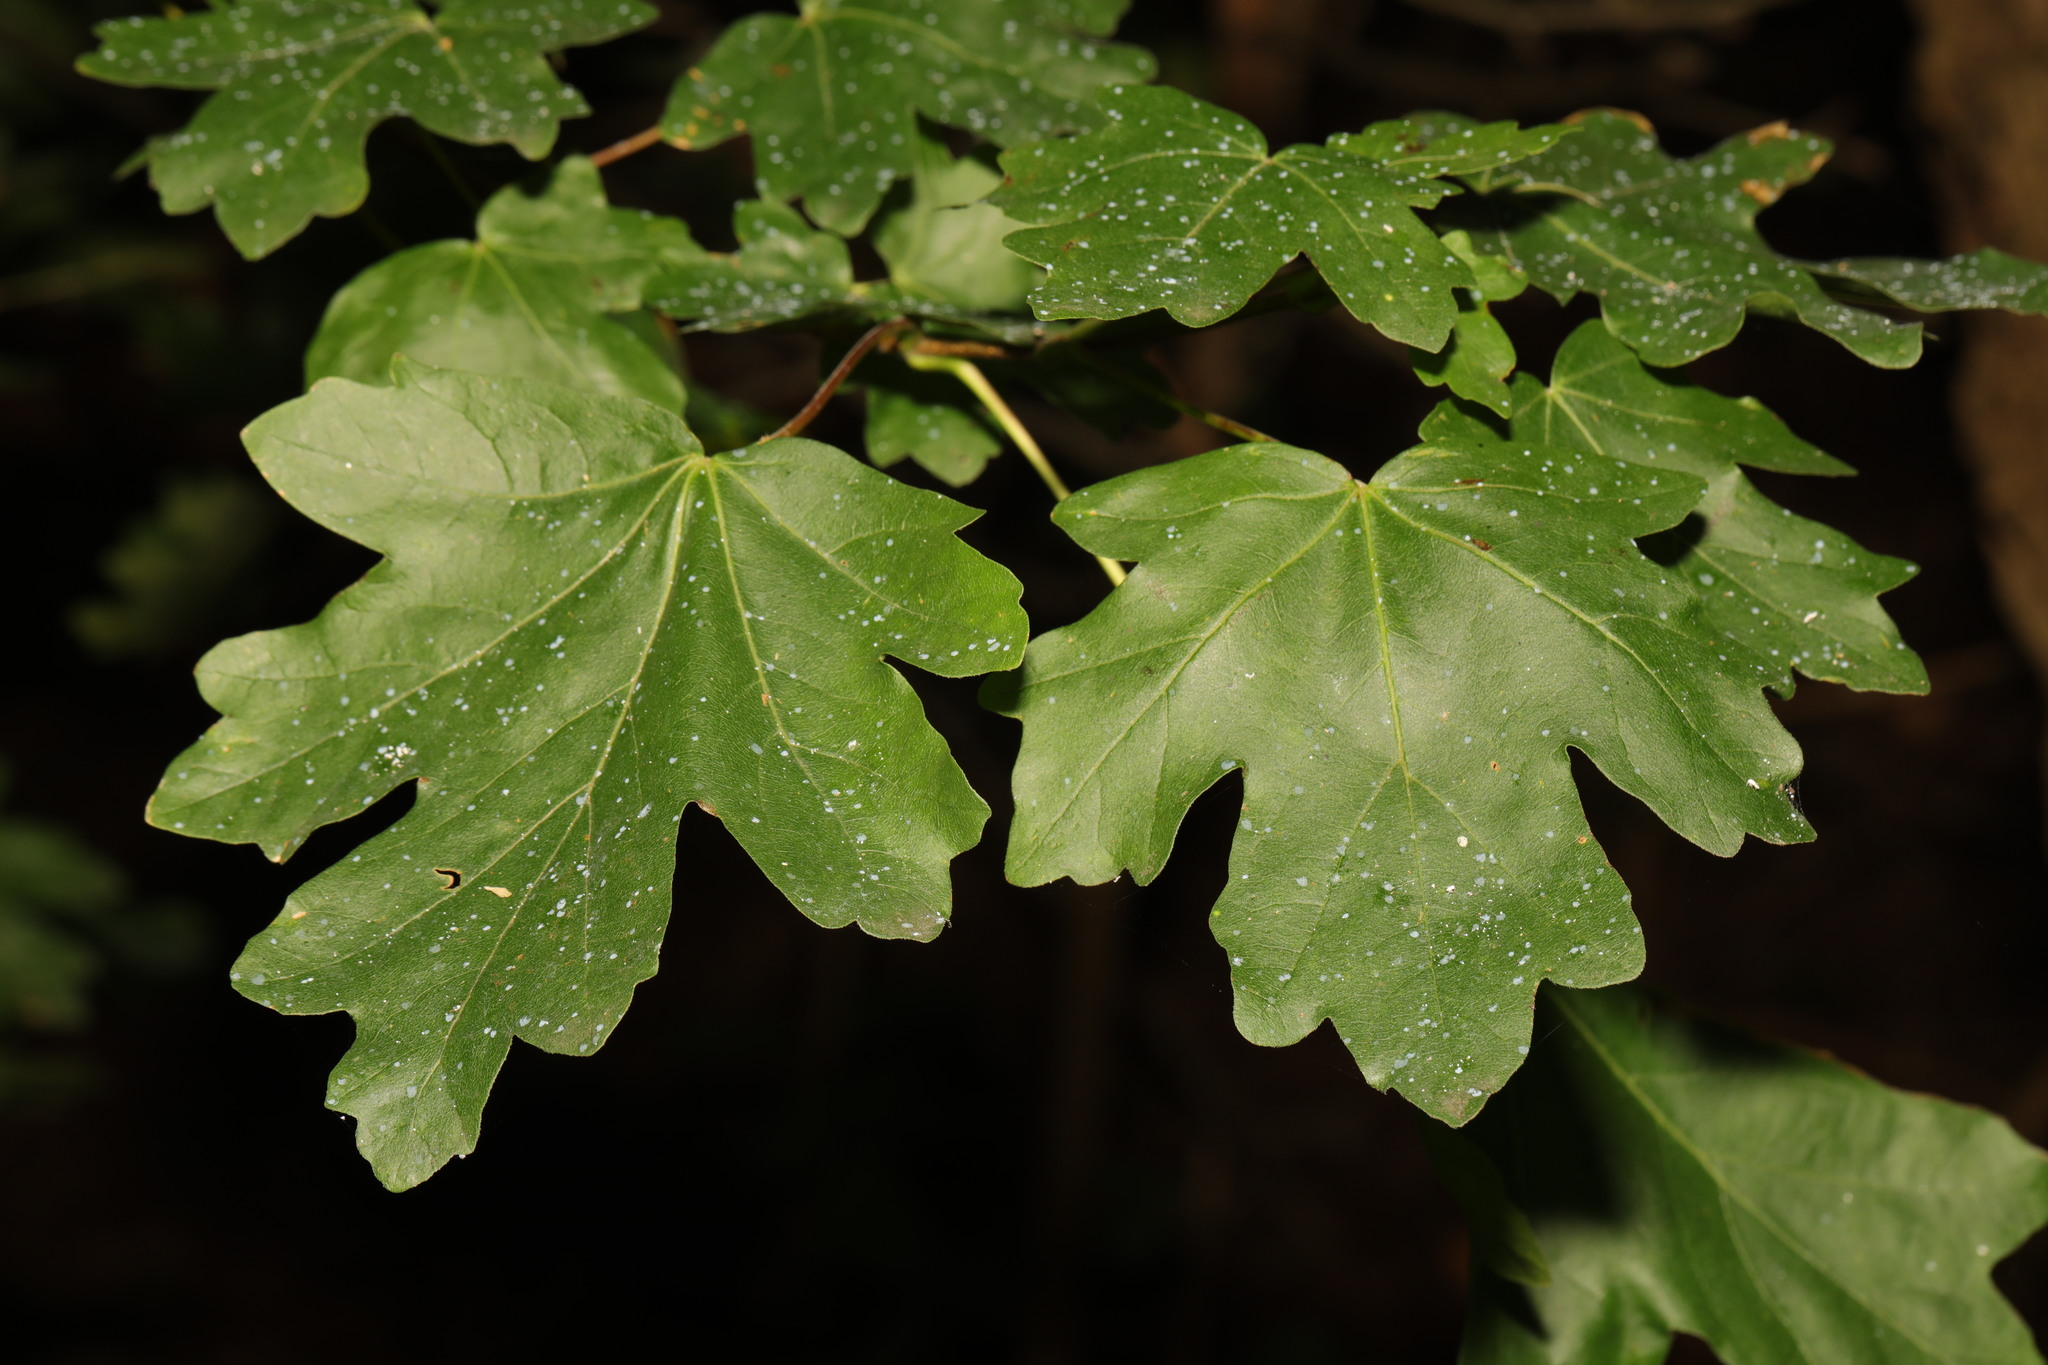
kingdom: Plantae
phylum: Tracheophyta
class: Magnoliopsida
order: Sapindales
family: Sapindaceae
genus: Acer
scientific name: Acer campestre
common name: Field maple
